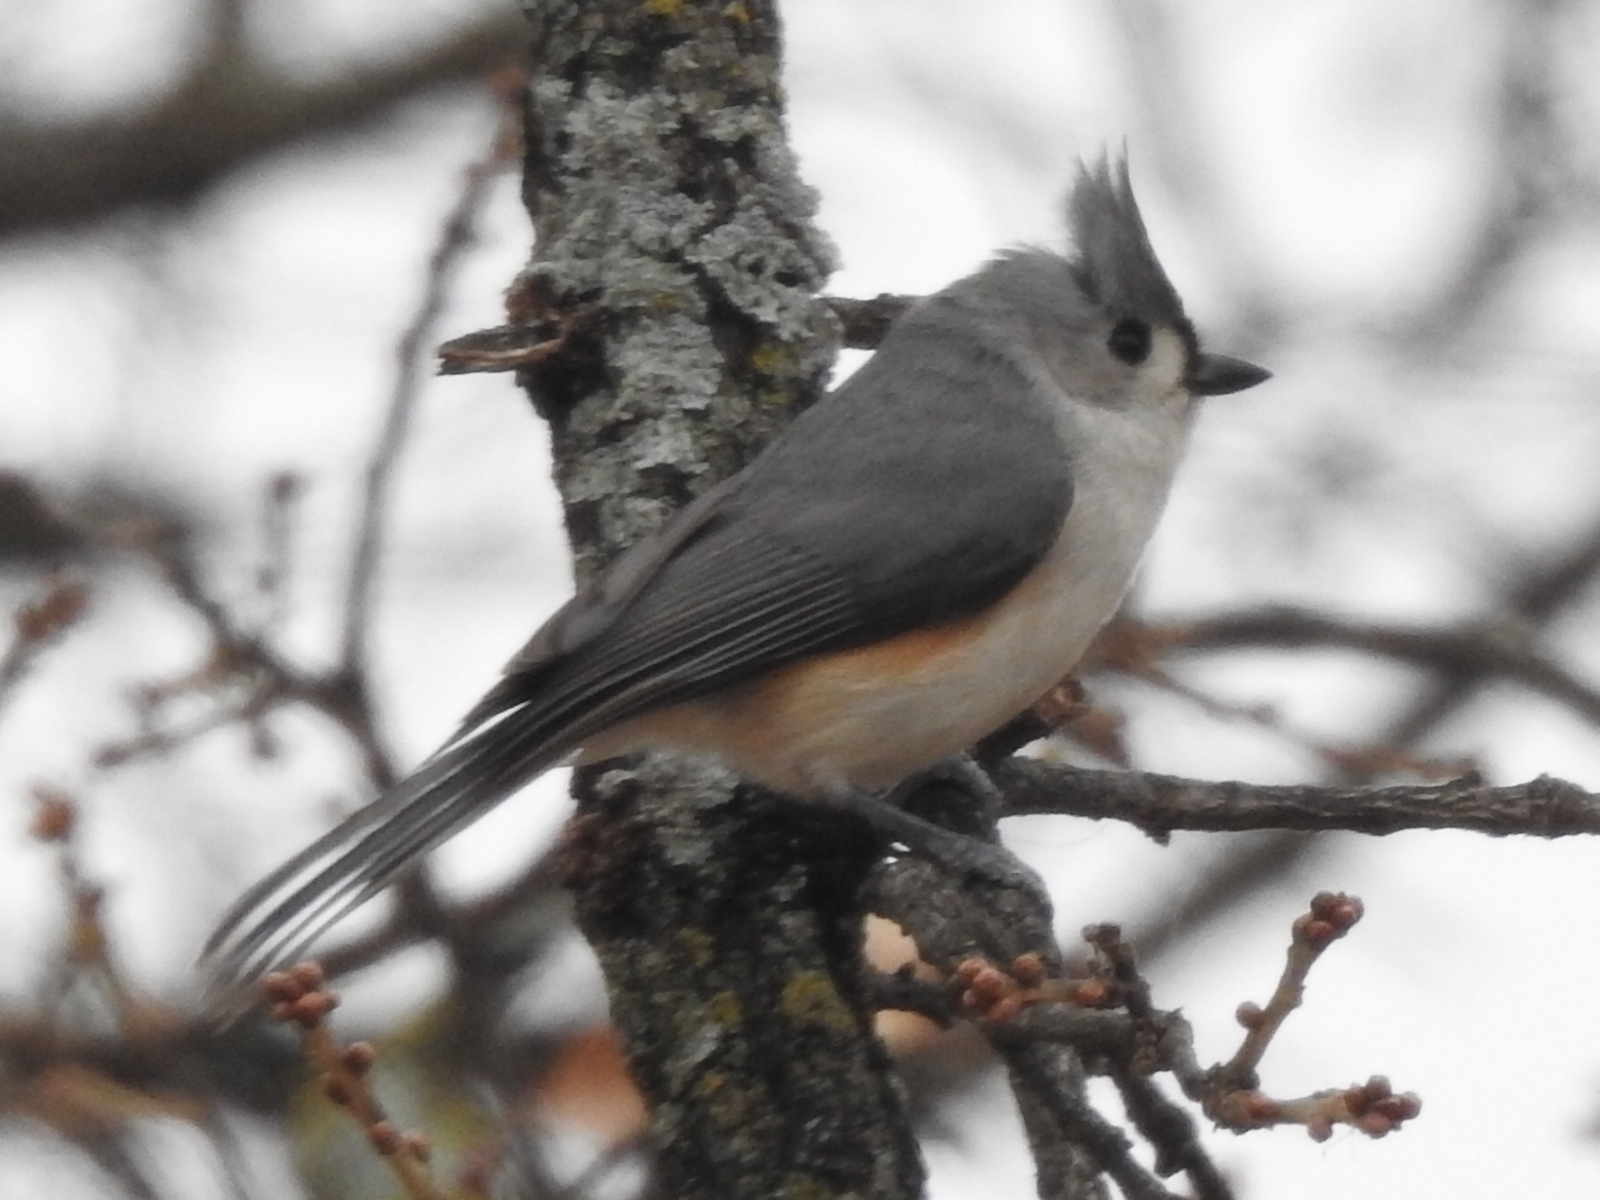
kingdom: Animalia
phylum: Chordata
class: Aves
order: Passeriformes
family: Paridae
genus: Baeolophus
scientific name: Baeolophus bicolor
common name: Tufted titmouse
